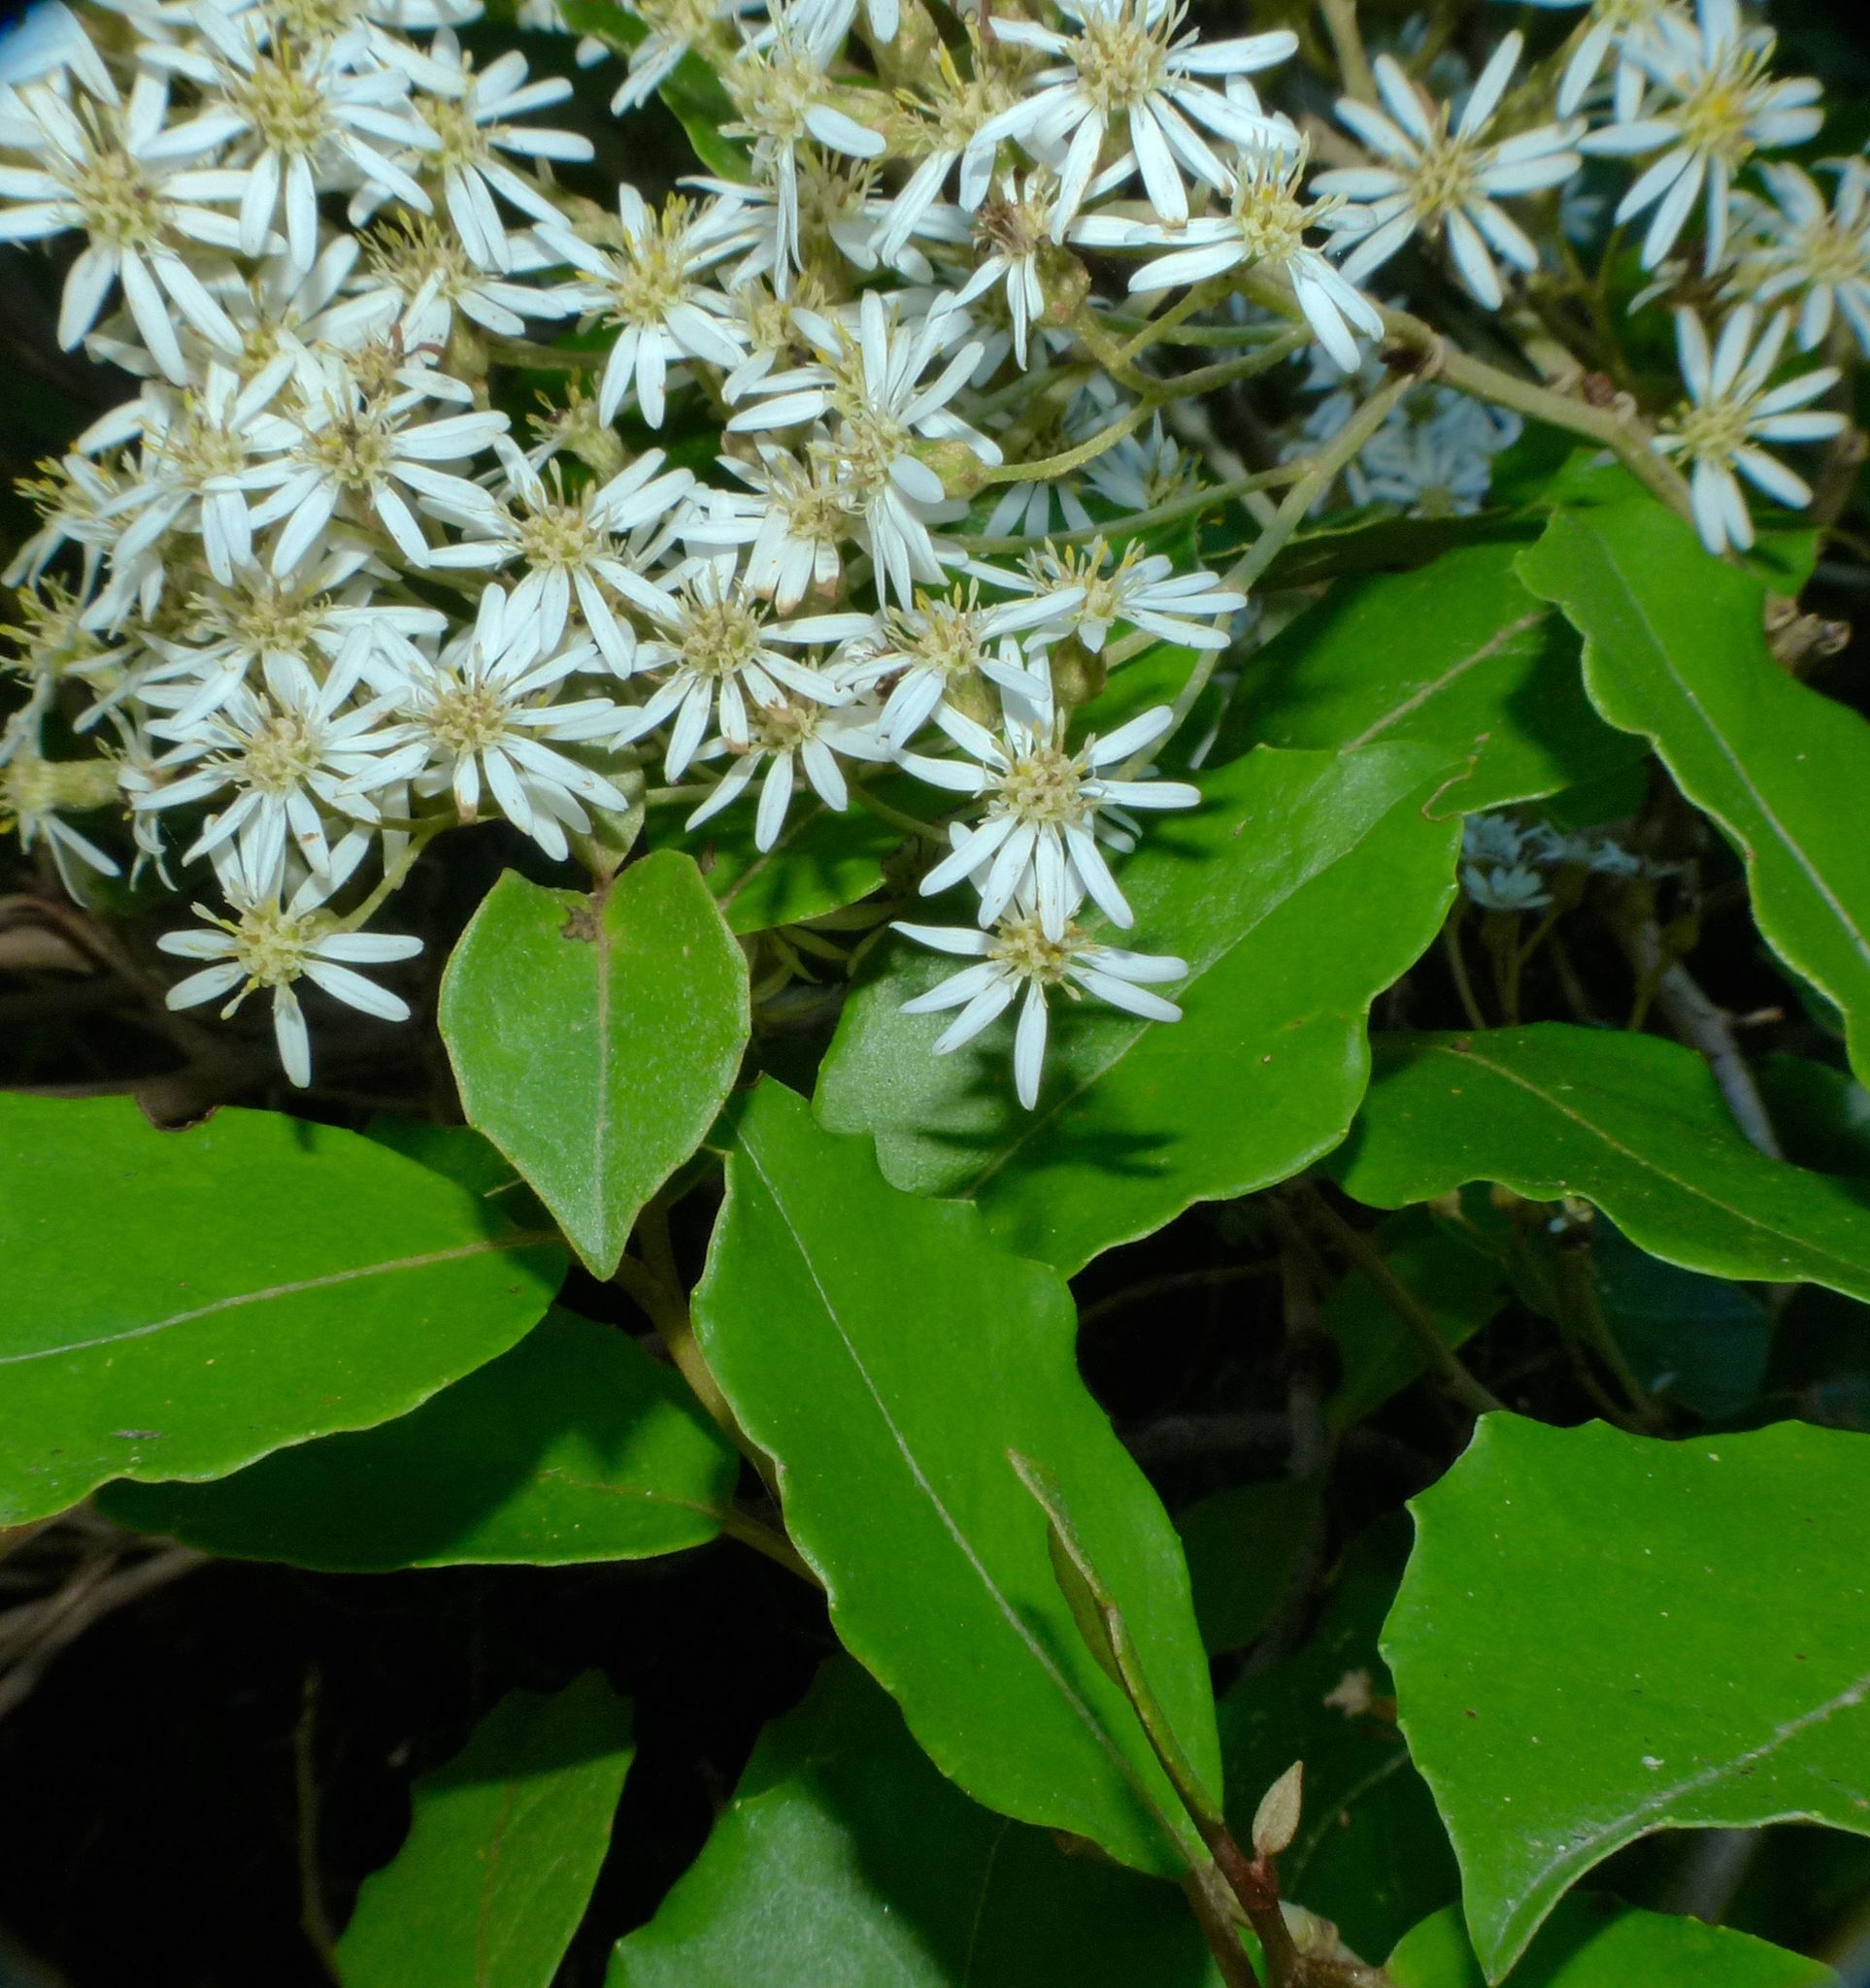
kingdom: Plantae
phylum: Tracheophyta
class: Magnoliopsida
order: Asterales
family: Asteraceae
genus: Olearia
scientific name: Olearia arborescens
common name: Glossy tree daisy
